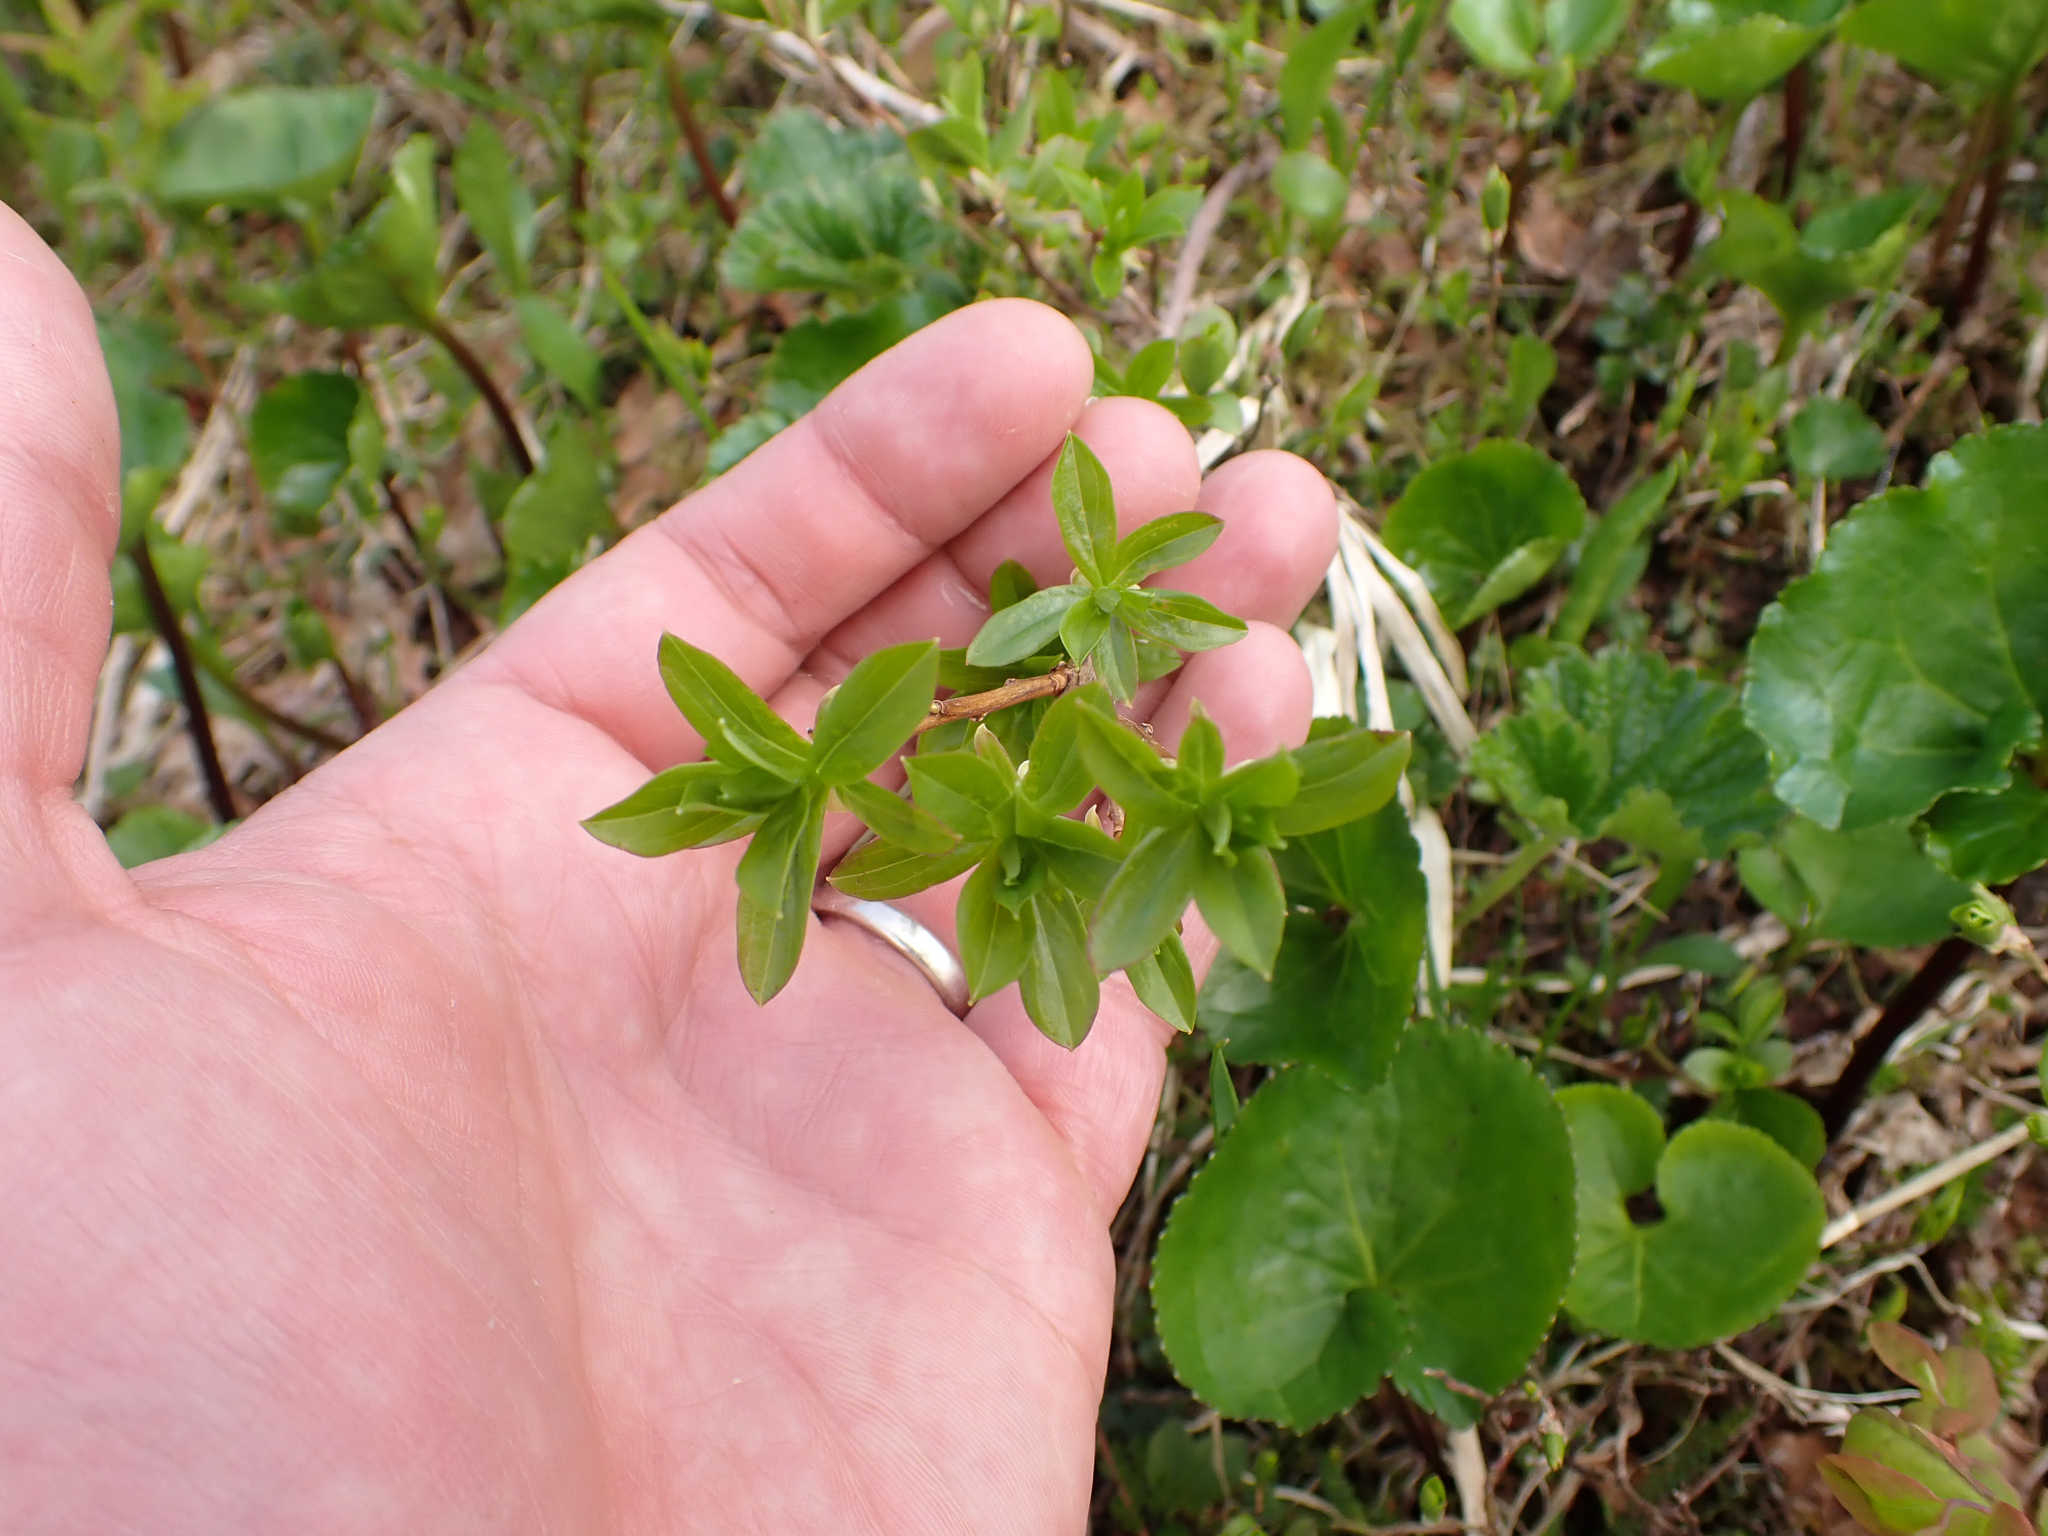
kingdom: Plantae
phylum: Tracheophyta
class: Magnoliopsida
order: Ericales
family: Ericaceae
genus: Elliottia
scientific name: Elliottia pyroliflora
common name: Copperbush
